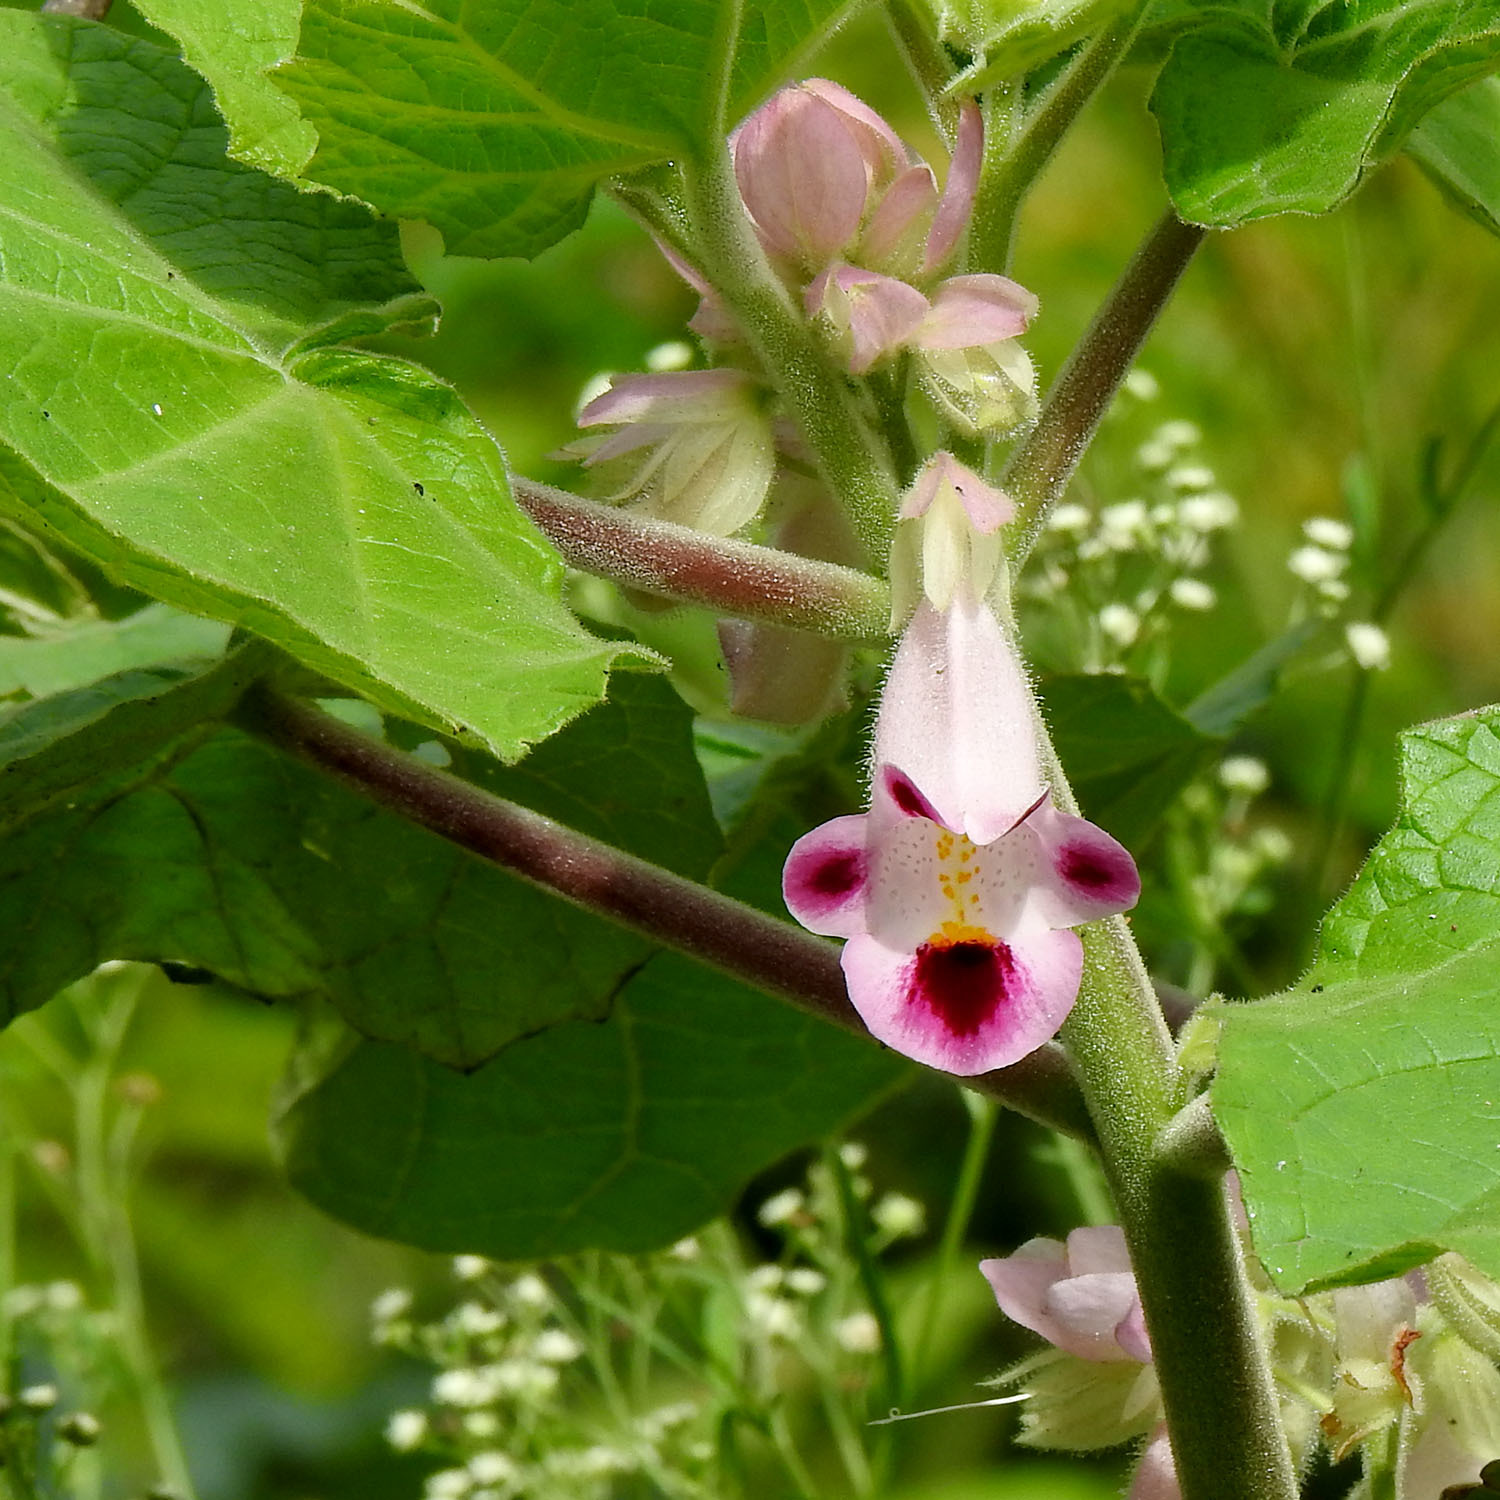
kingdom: Plantae
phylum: Tracheophyta
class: Magnoliopsida
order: Lamiales
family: Martyniaceae
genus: Martynia
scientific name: Martynia annua
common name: Tiger's-claw
